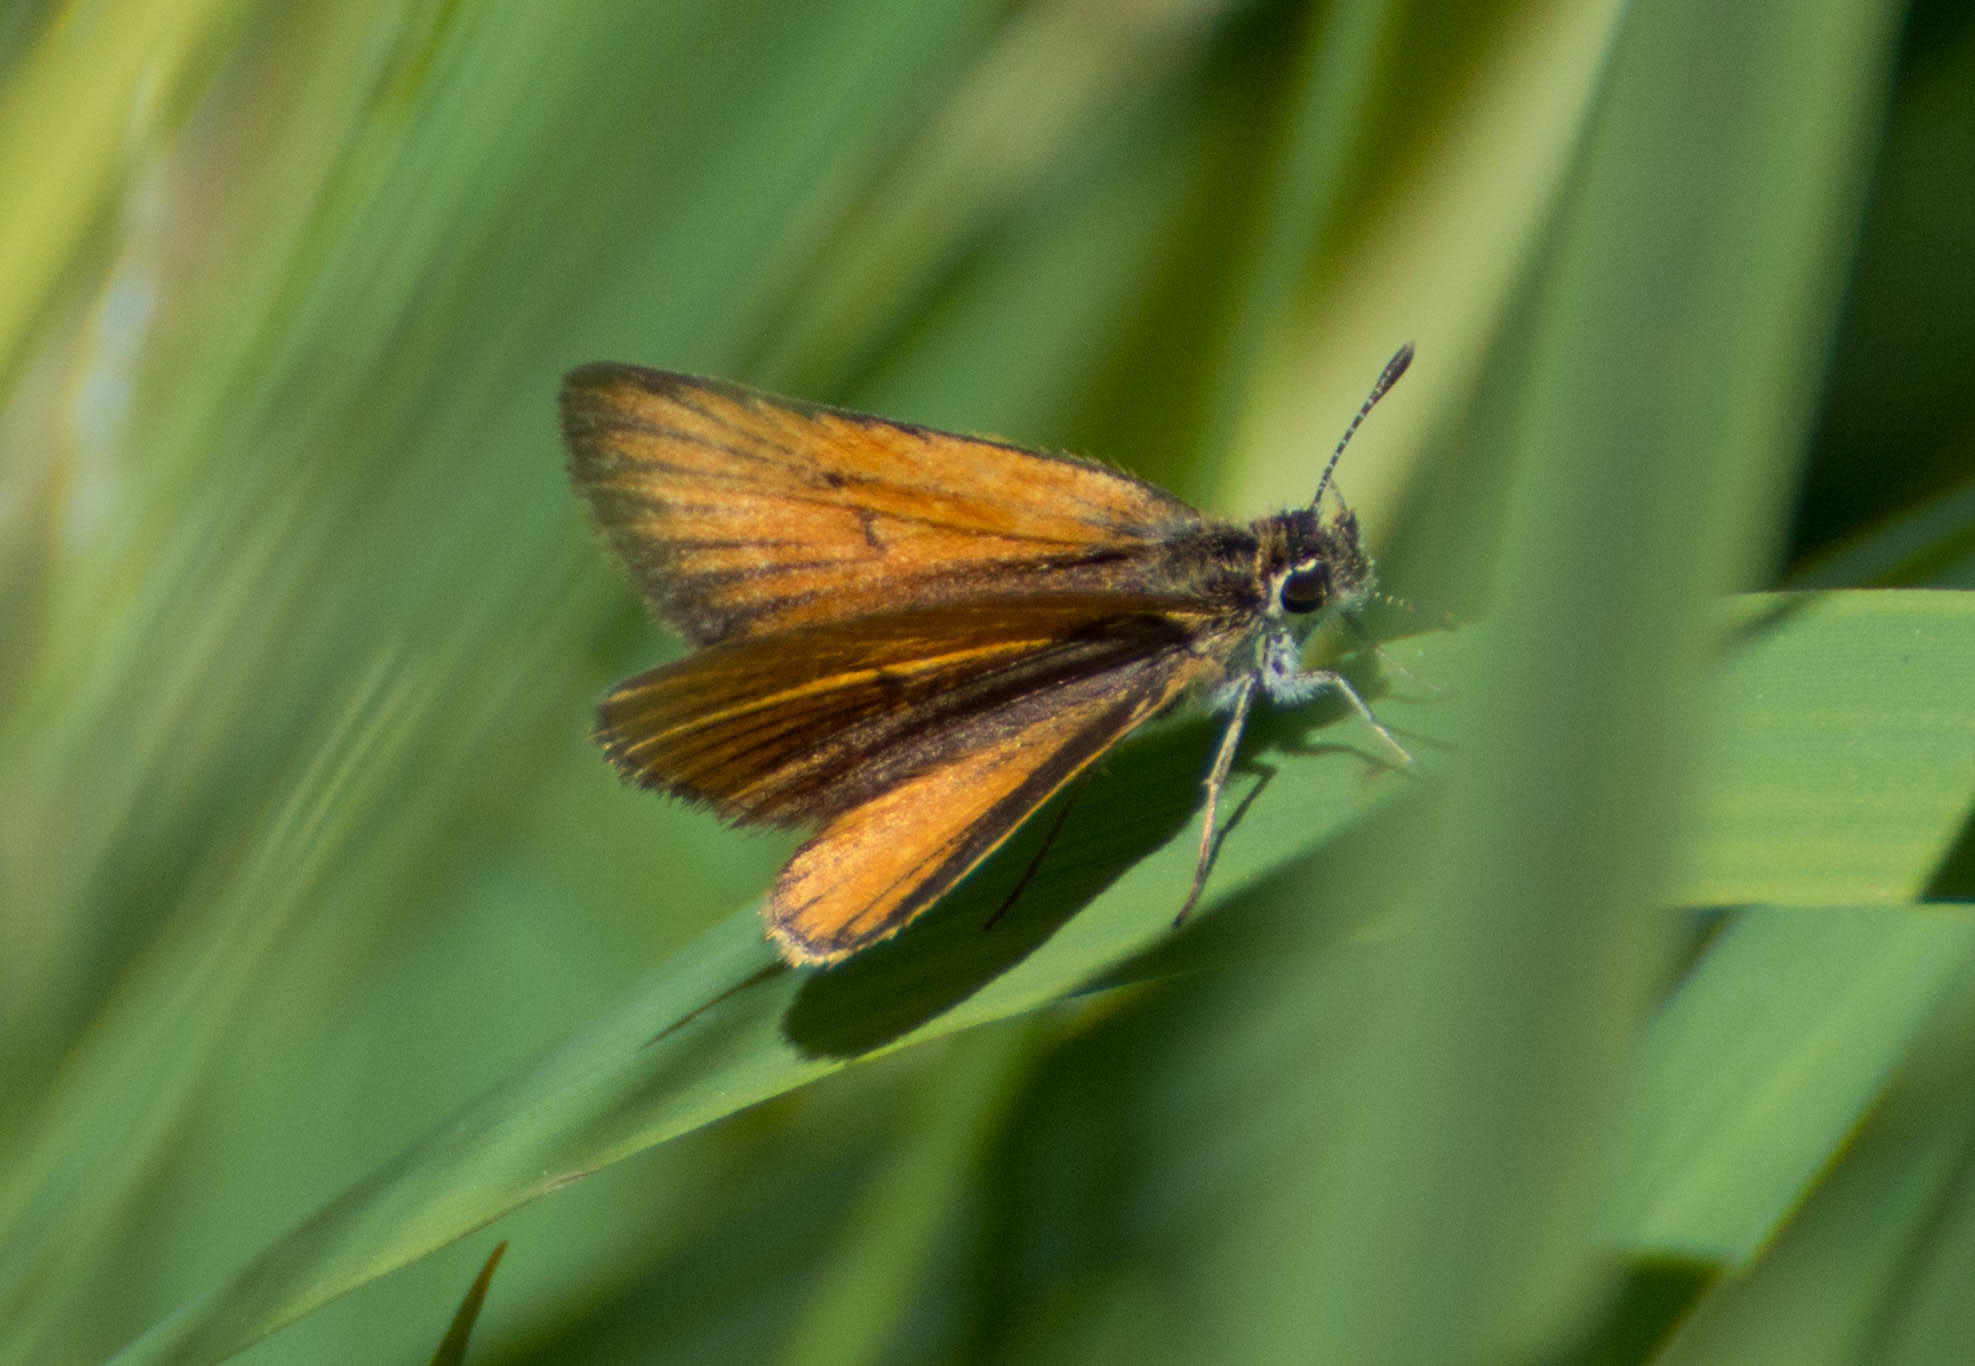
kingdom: Animalia
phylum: Arthropoda
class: Insecta
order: Lepidoptera
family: Hesperiidae
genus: Ancyloxypha
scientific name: Ancyloxypha nitedula
